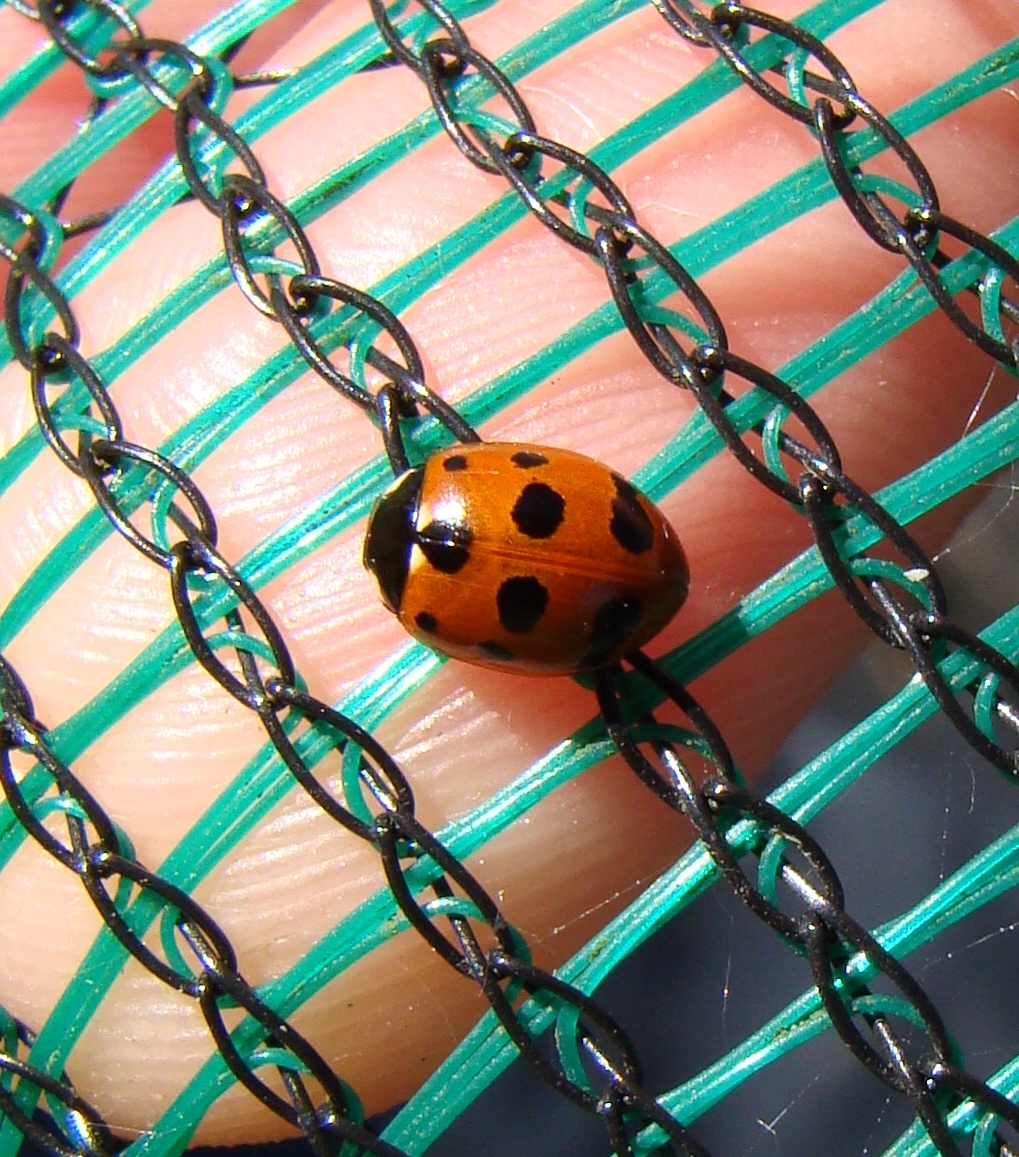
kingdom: Animalia
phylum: Arthropoda
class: Insecta
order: Coleoptera
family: Coccinellidae
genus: Coccinella
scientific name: Coccinella undecimpunctata
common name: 11-spot ladybird
